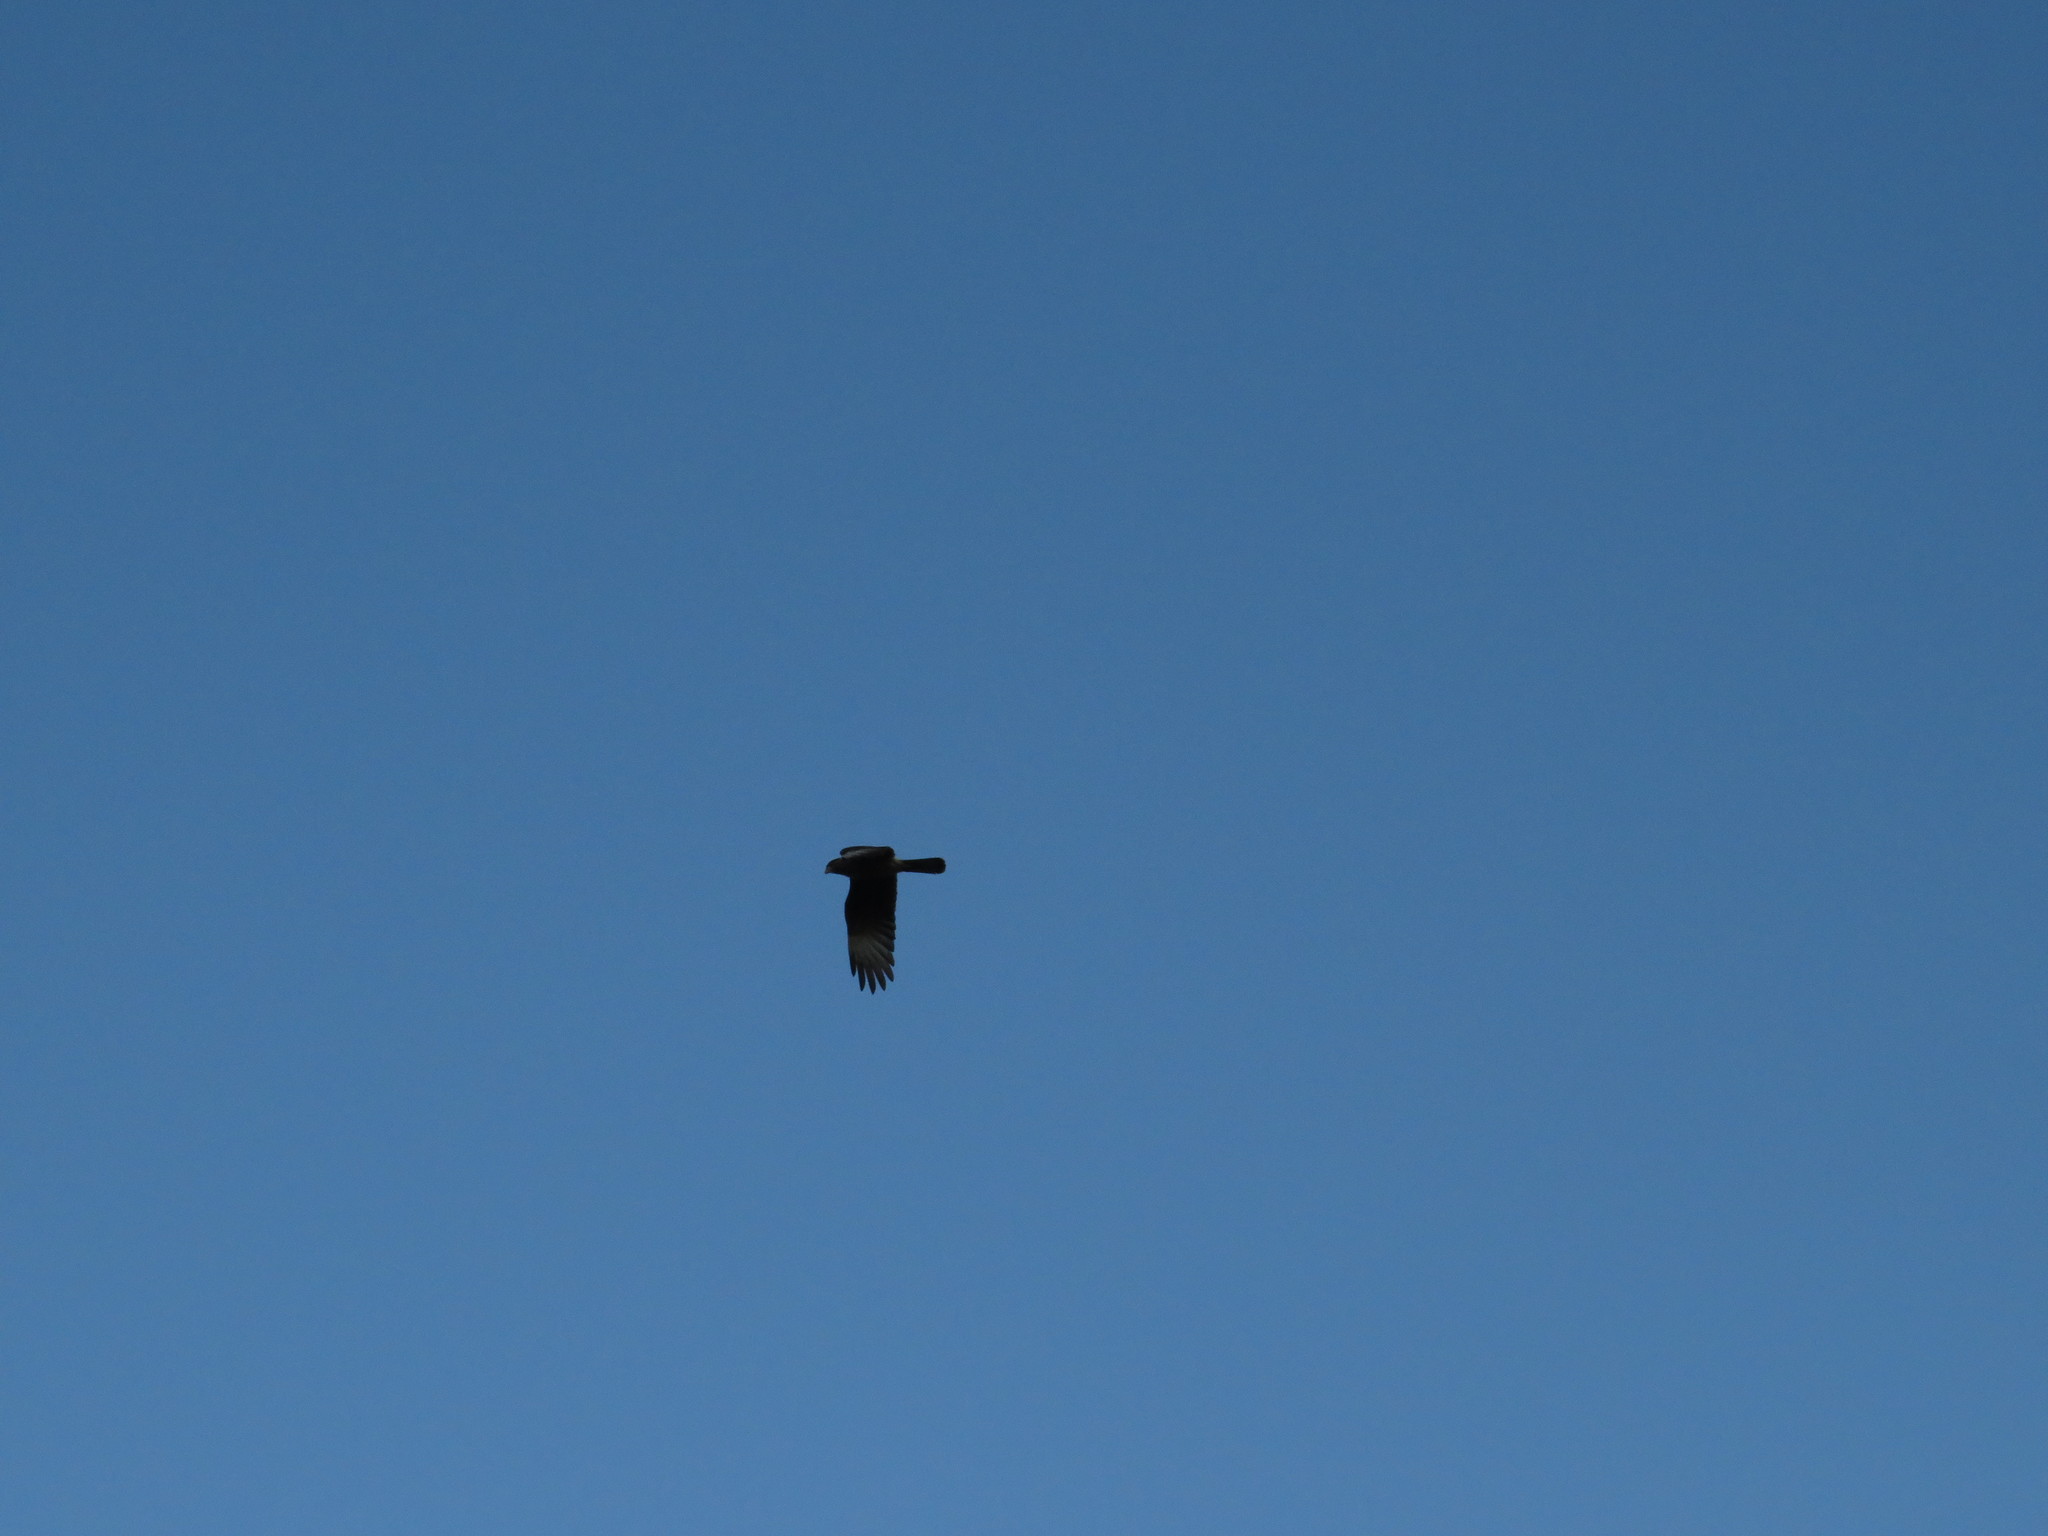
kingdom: Animalia
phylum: Chordata
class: Aves
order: Falconiformes
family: Falconidae
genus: Daptrius
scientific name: Daptrius
